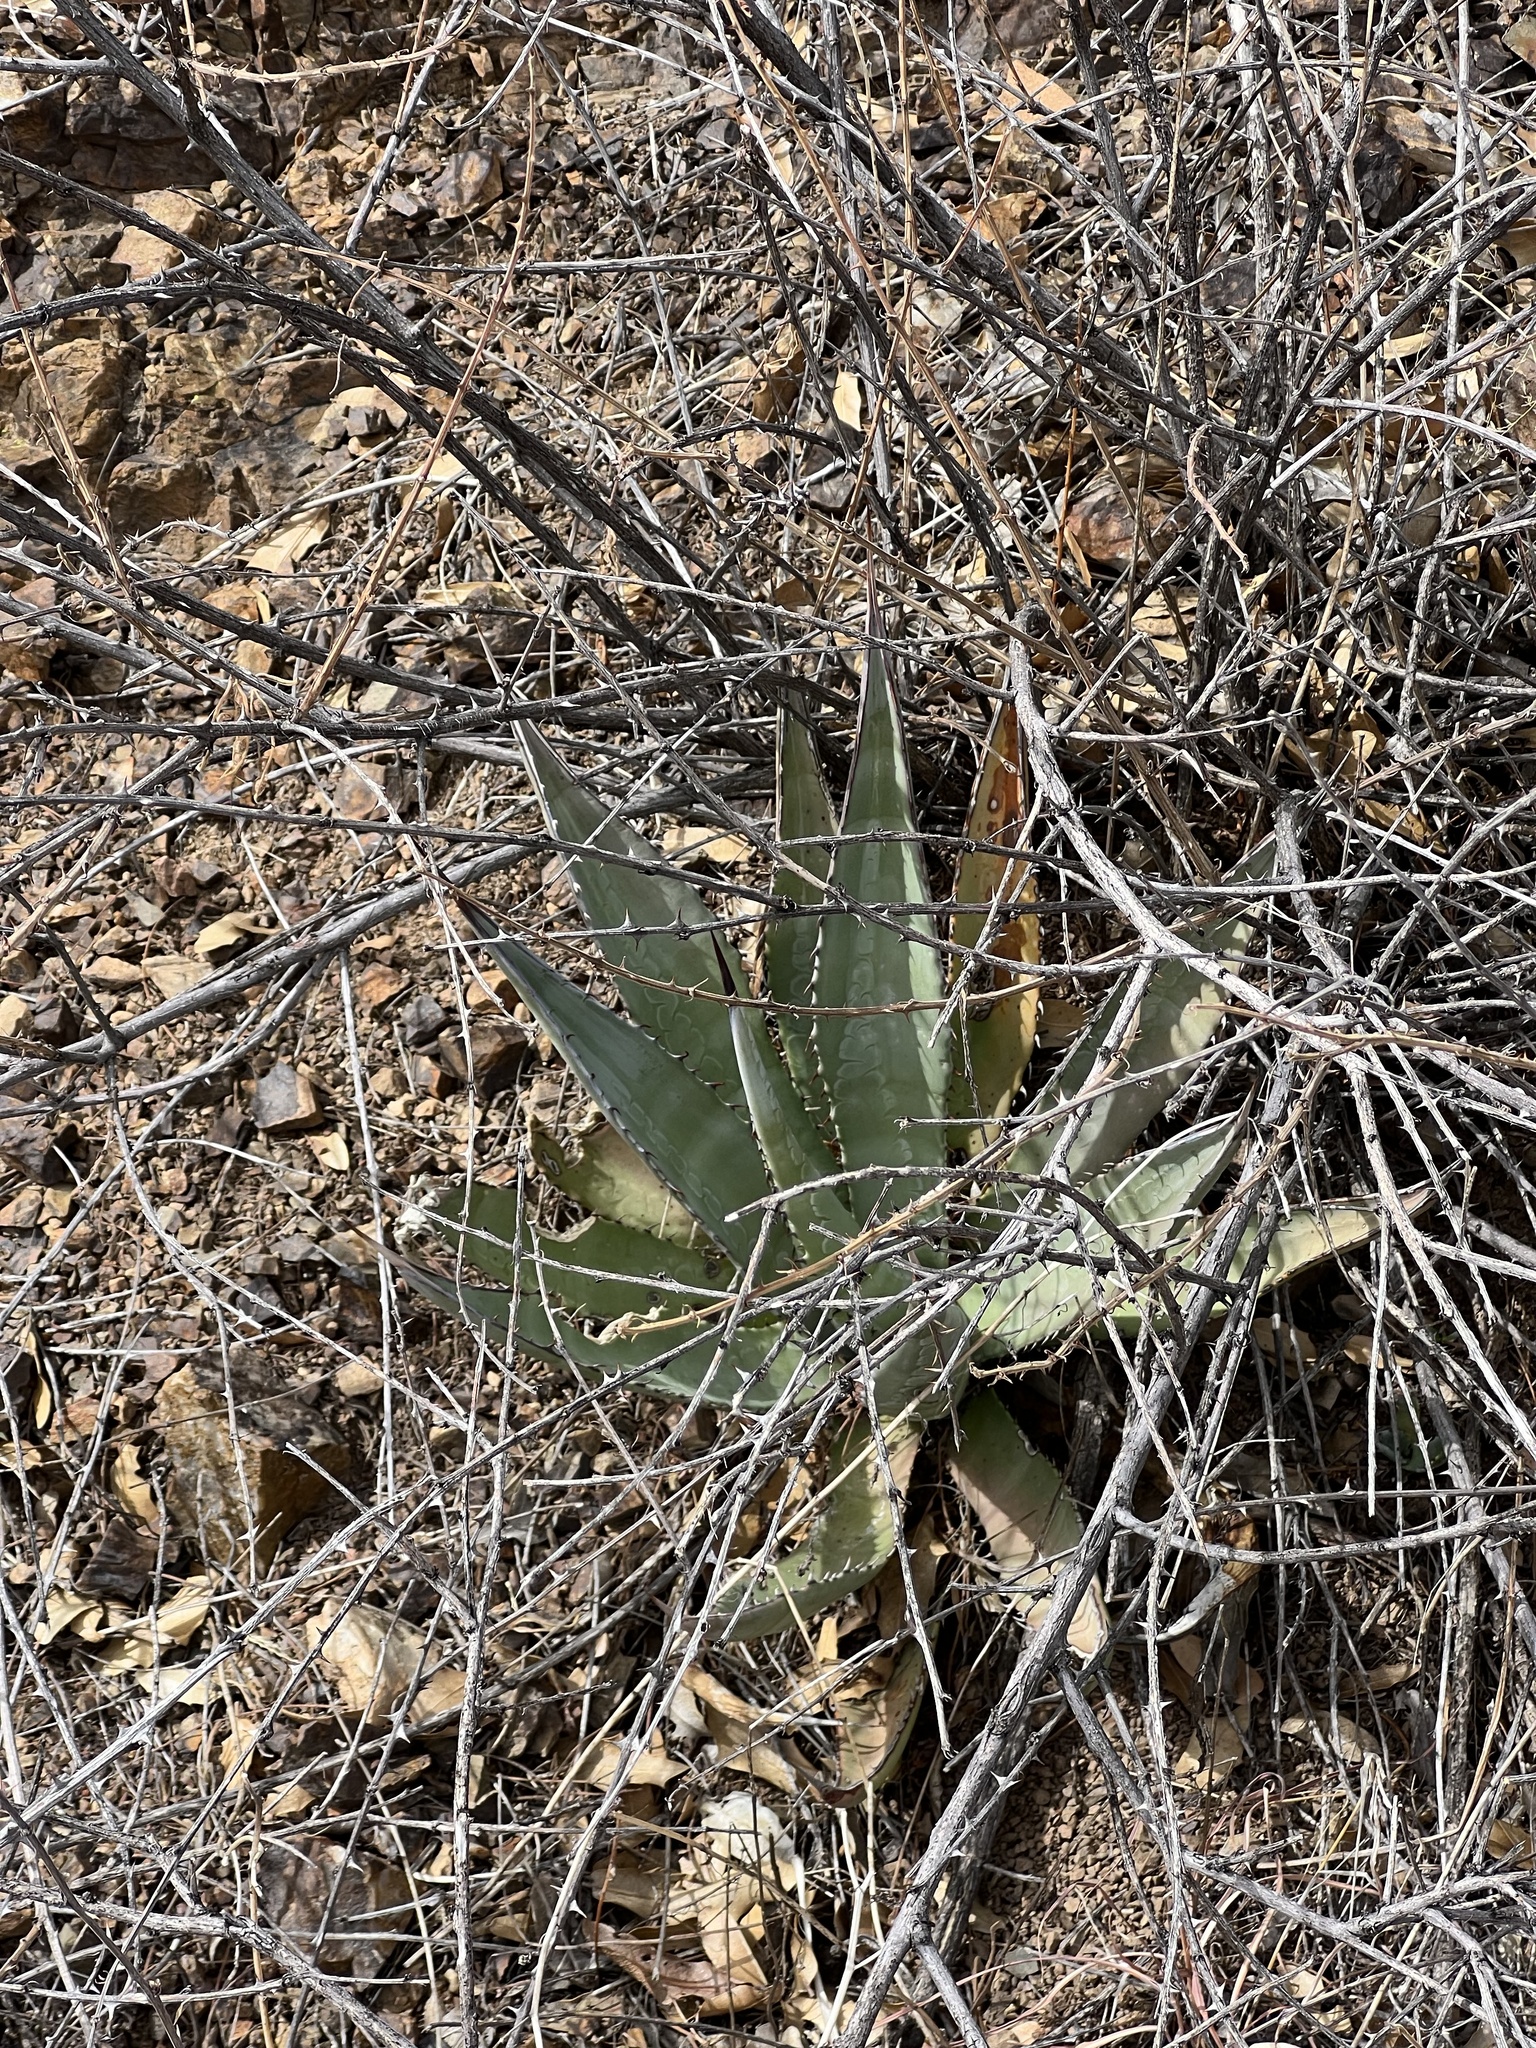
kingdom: Plantae
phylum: Tracheophyta
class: Liliopsida
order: Asparagales
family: Asparagaceae
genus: Agave
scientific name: Agave palmeri
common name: Palmer agave
